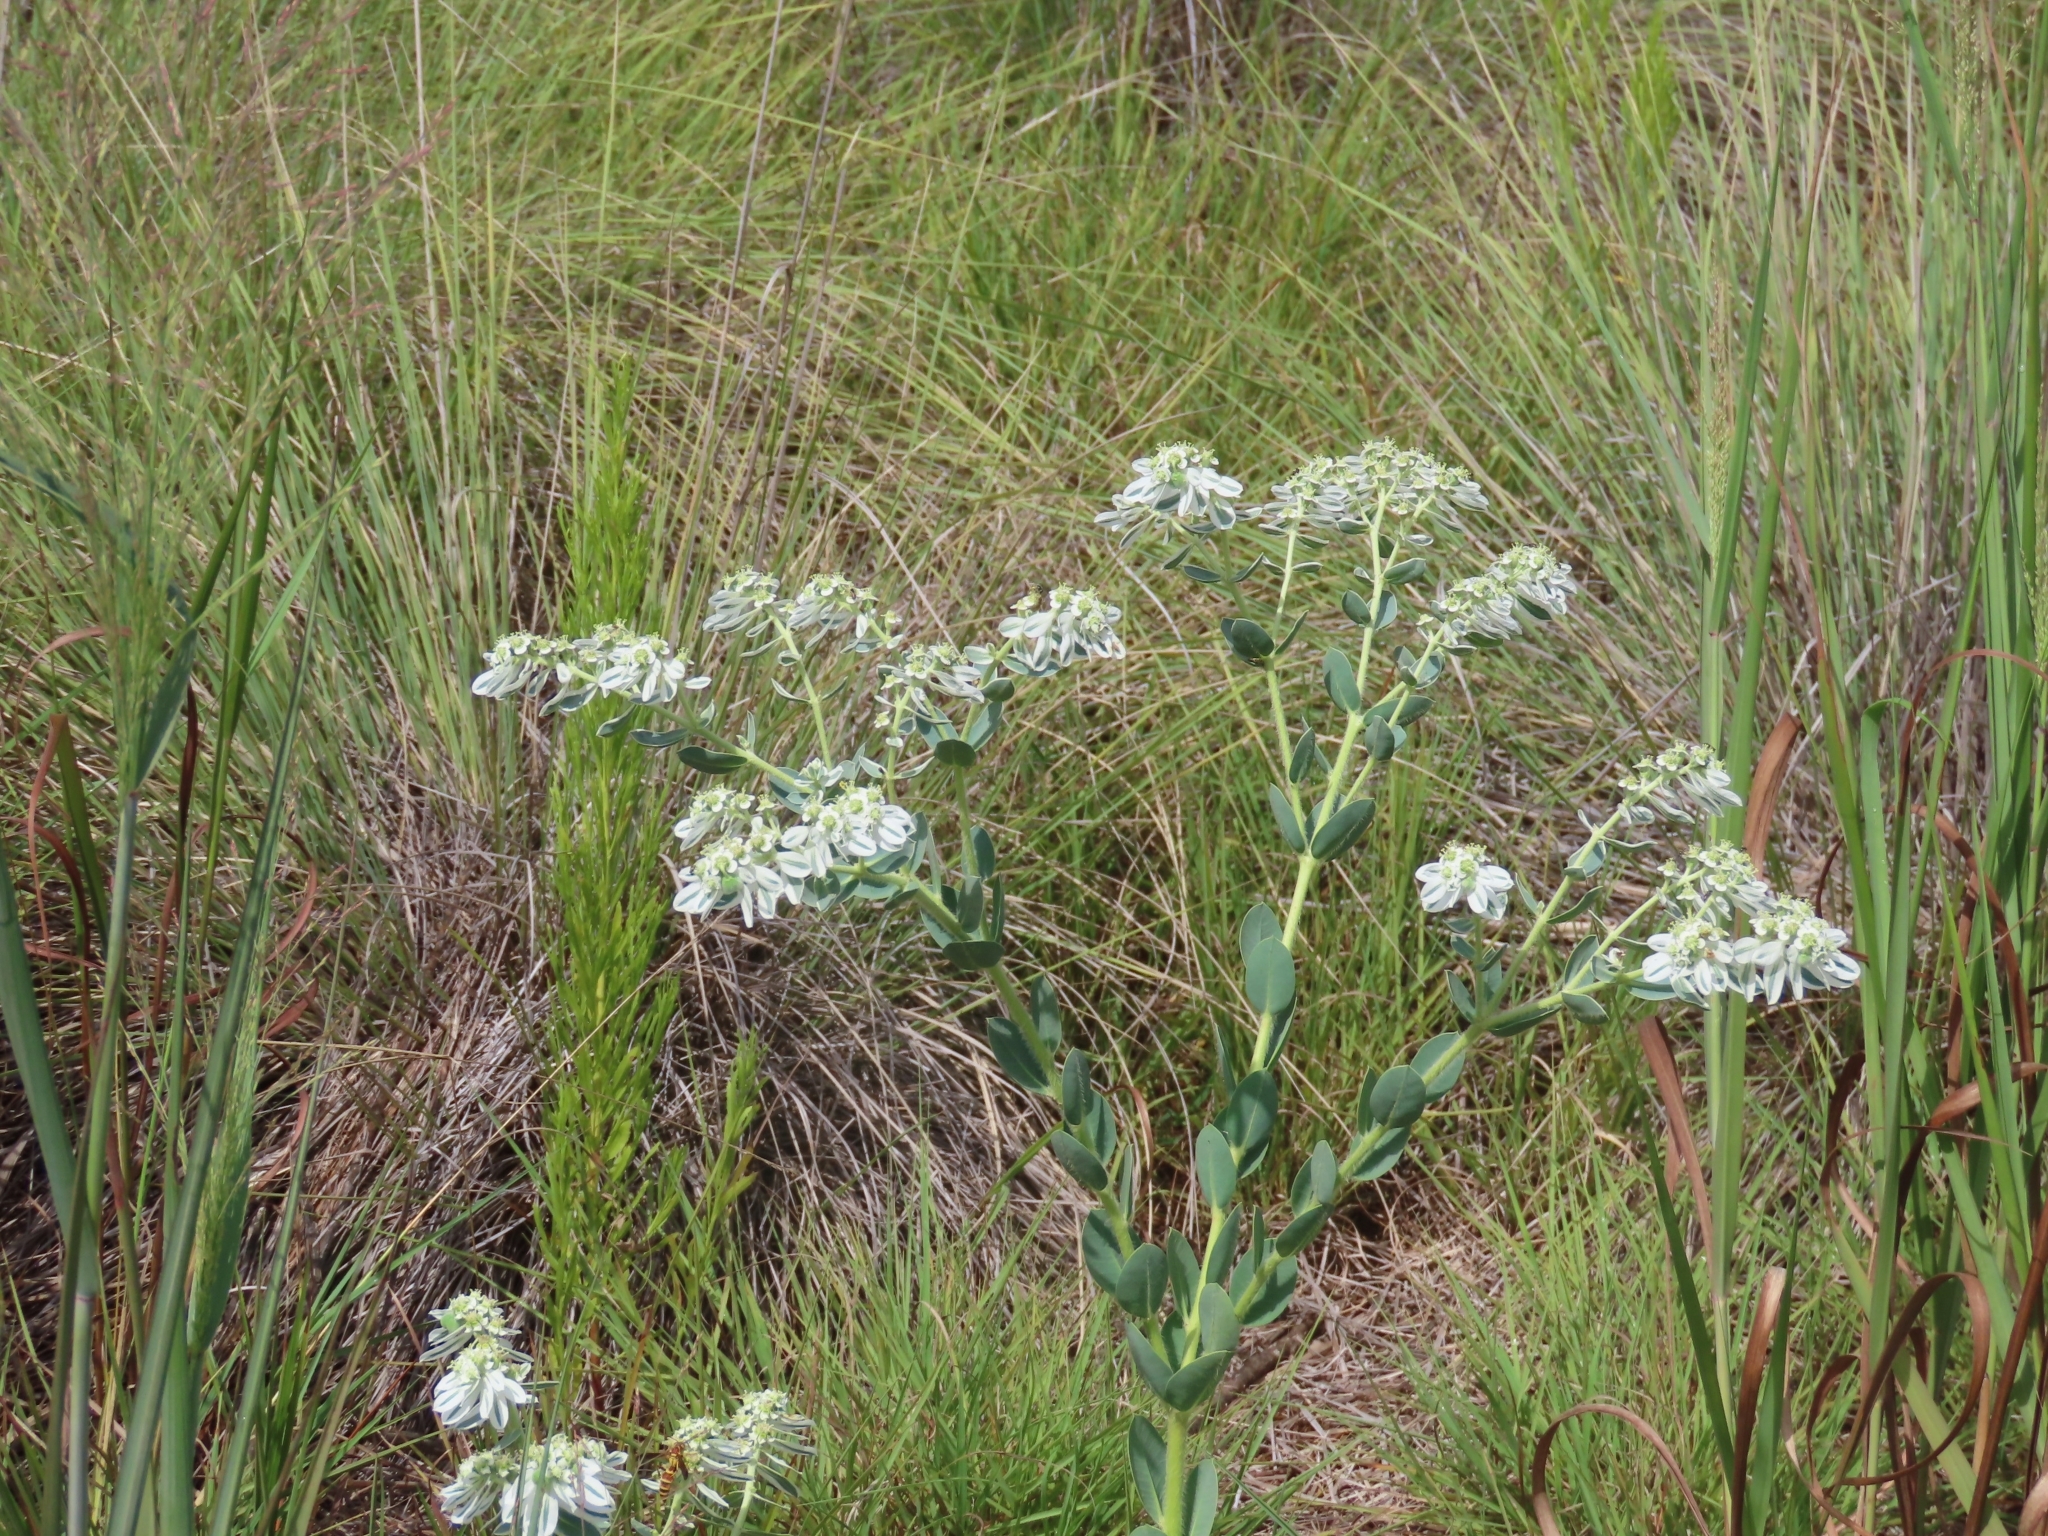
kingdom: Plantae
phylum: Tracheophyta
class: Magnoliopsida
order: Malpighiales
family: Euphorbiaceae
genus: Euphorbia
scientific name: Euphorbia marginata
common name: Ghostweed
